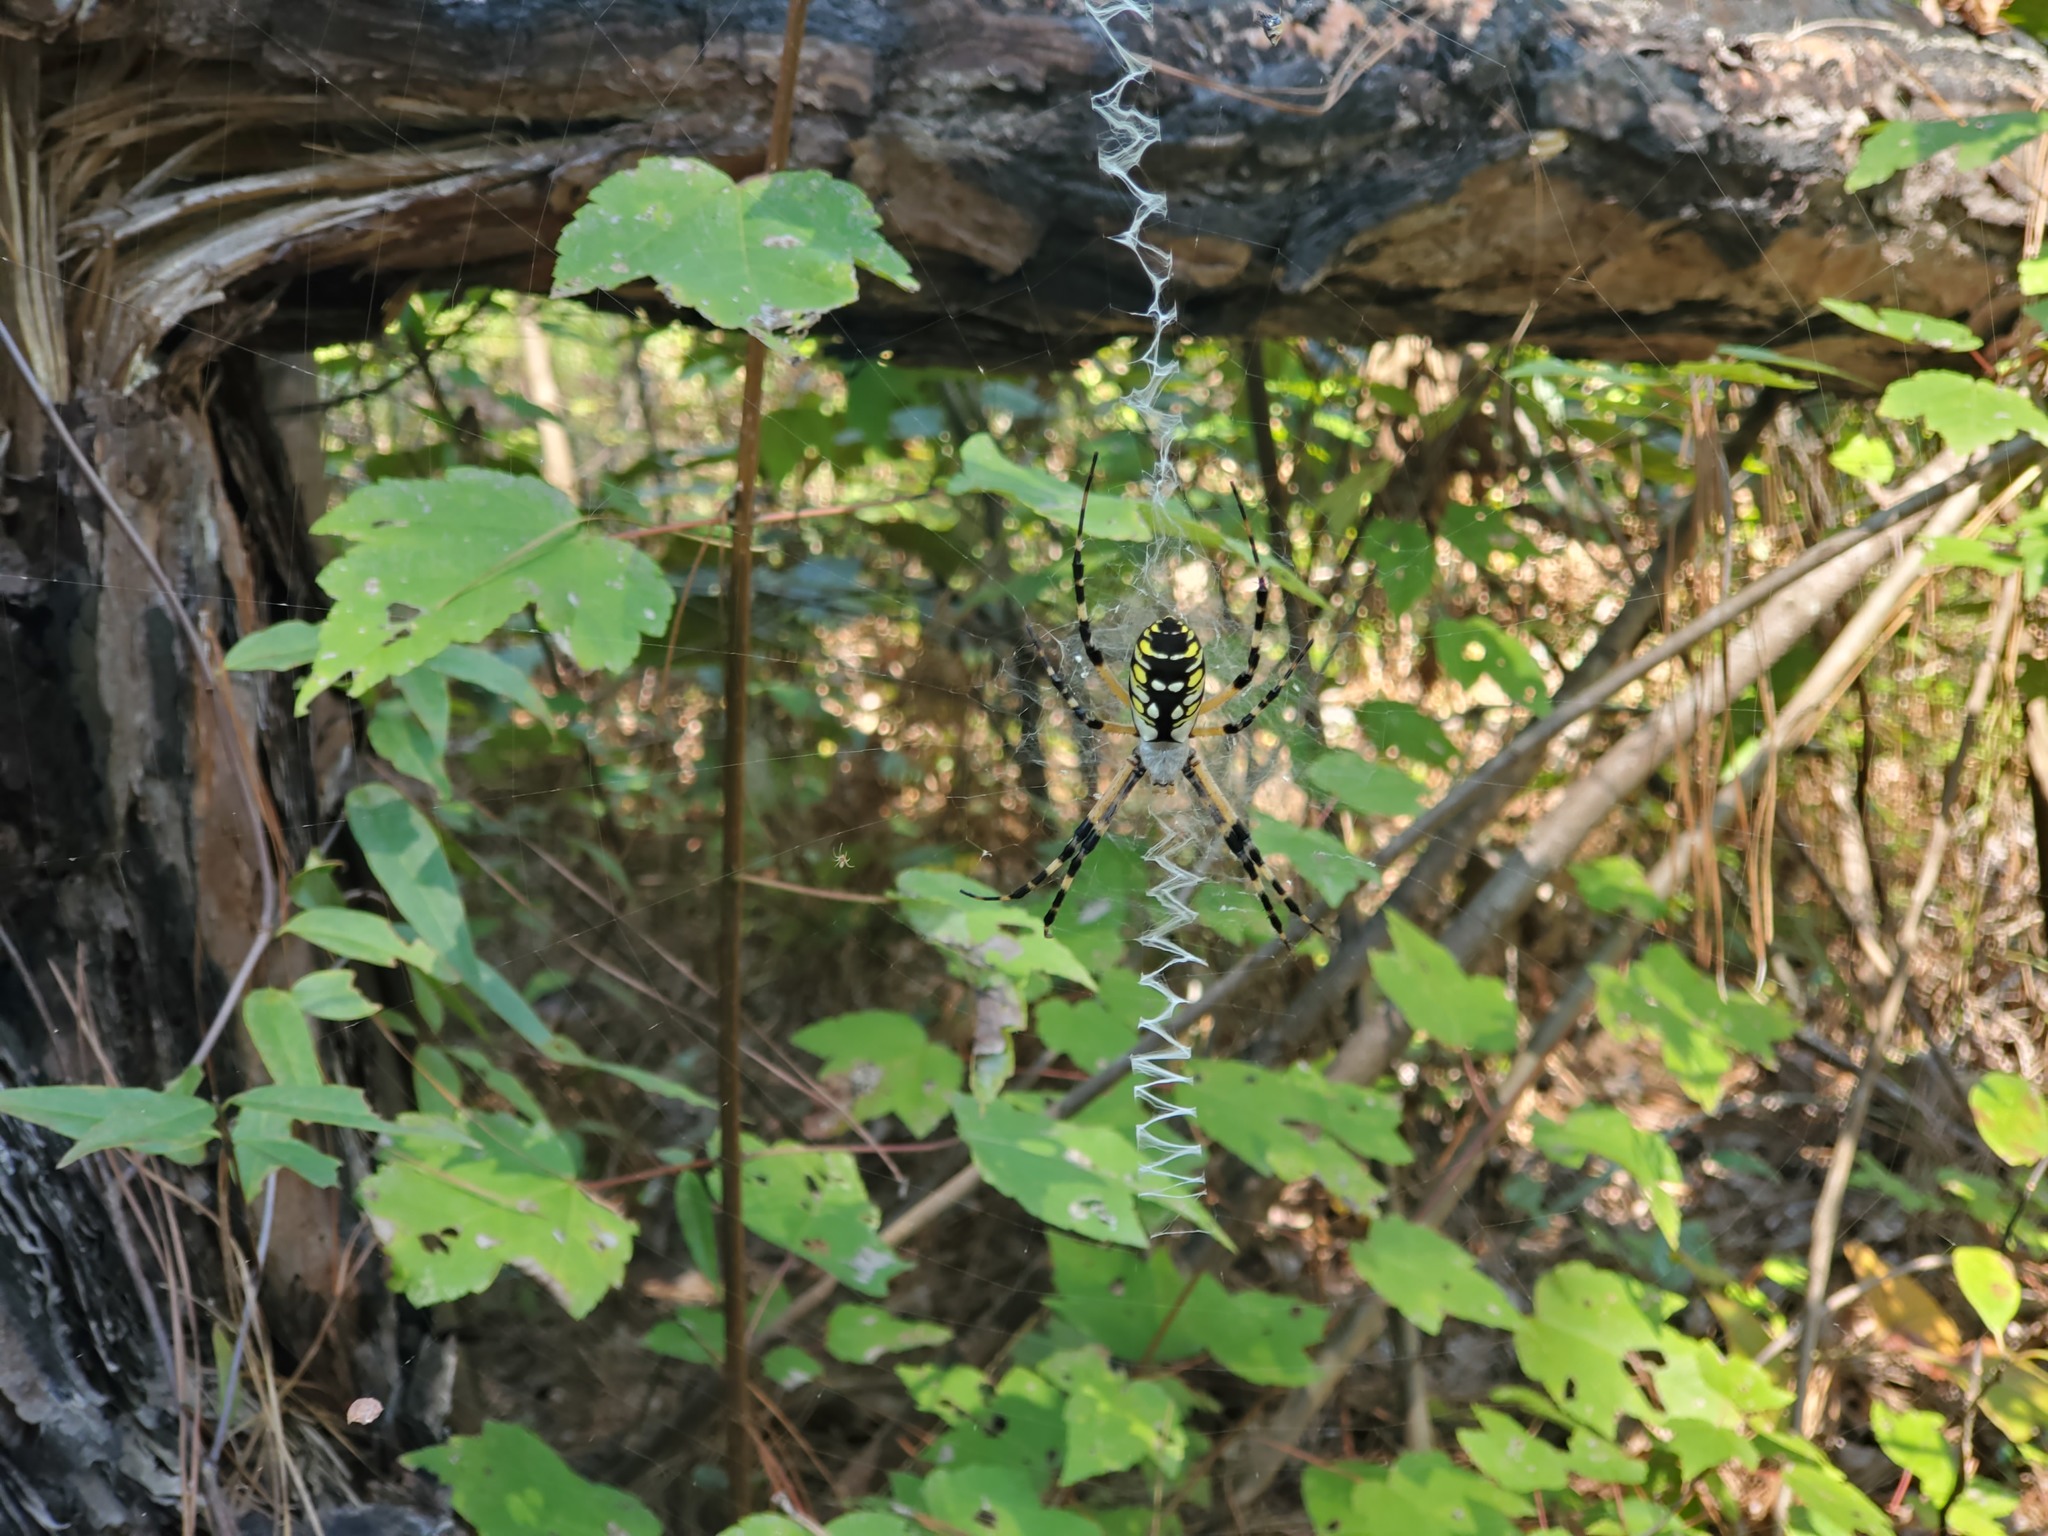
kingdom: Animalia
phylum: Arthropoda
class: Arachnida
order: Araneae
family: Araneidae
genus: Argiope
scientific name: Argiope aurantia
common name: Orb weavers
